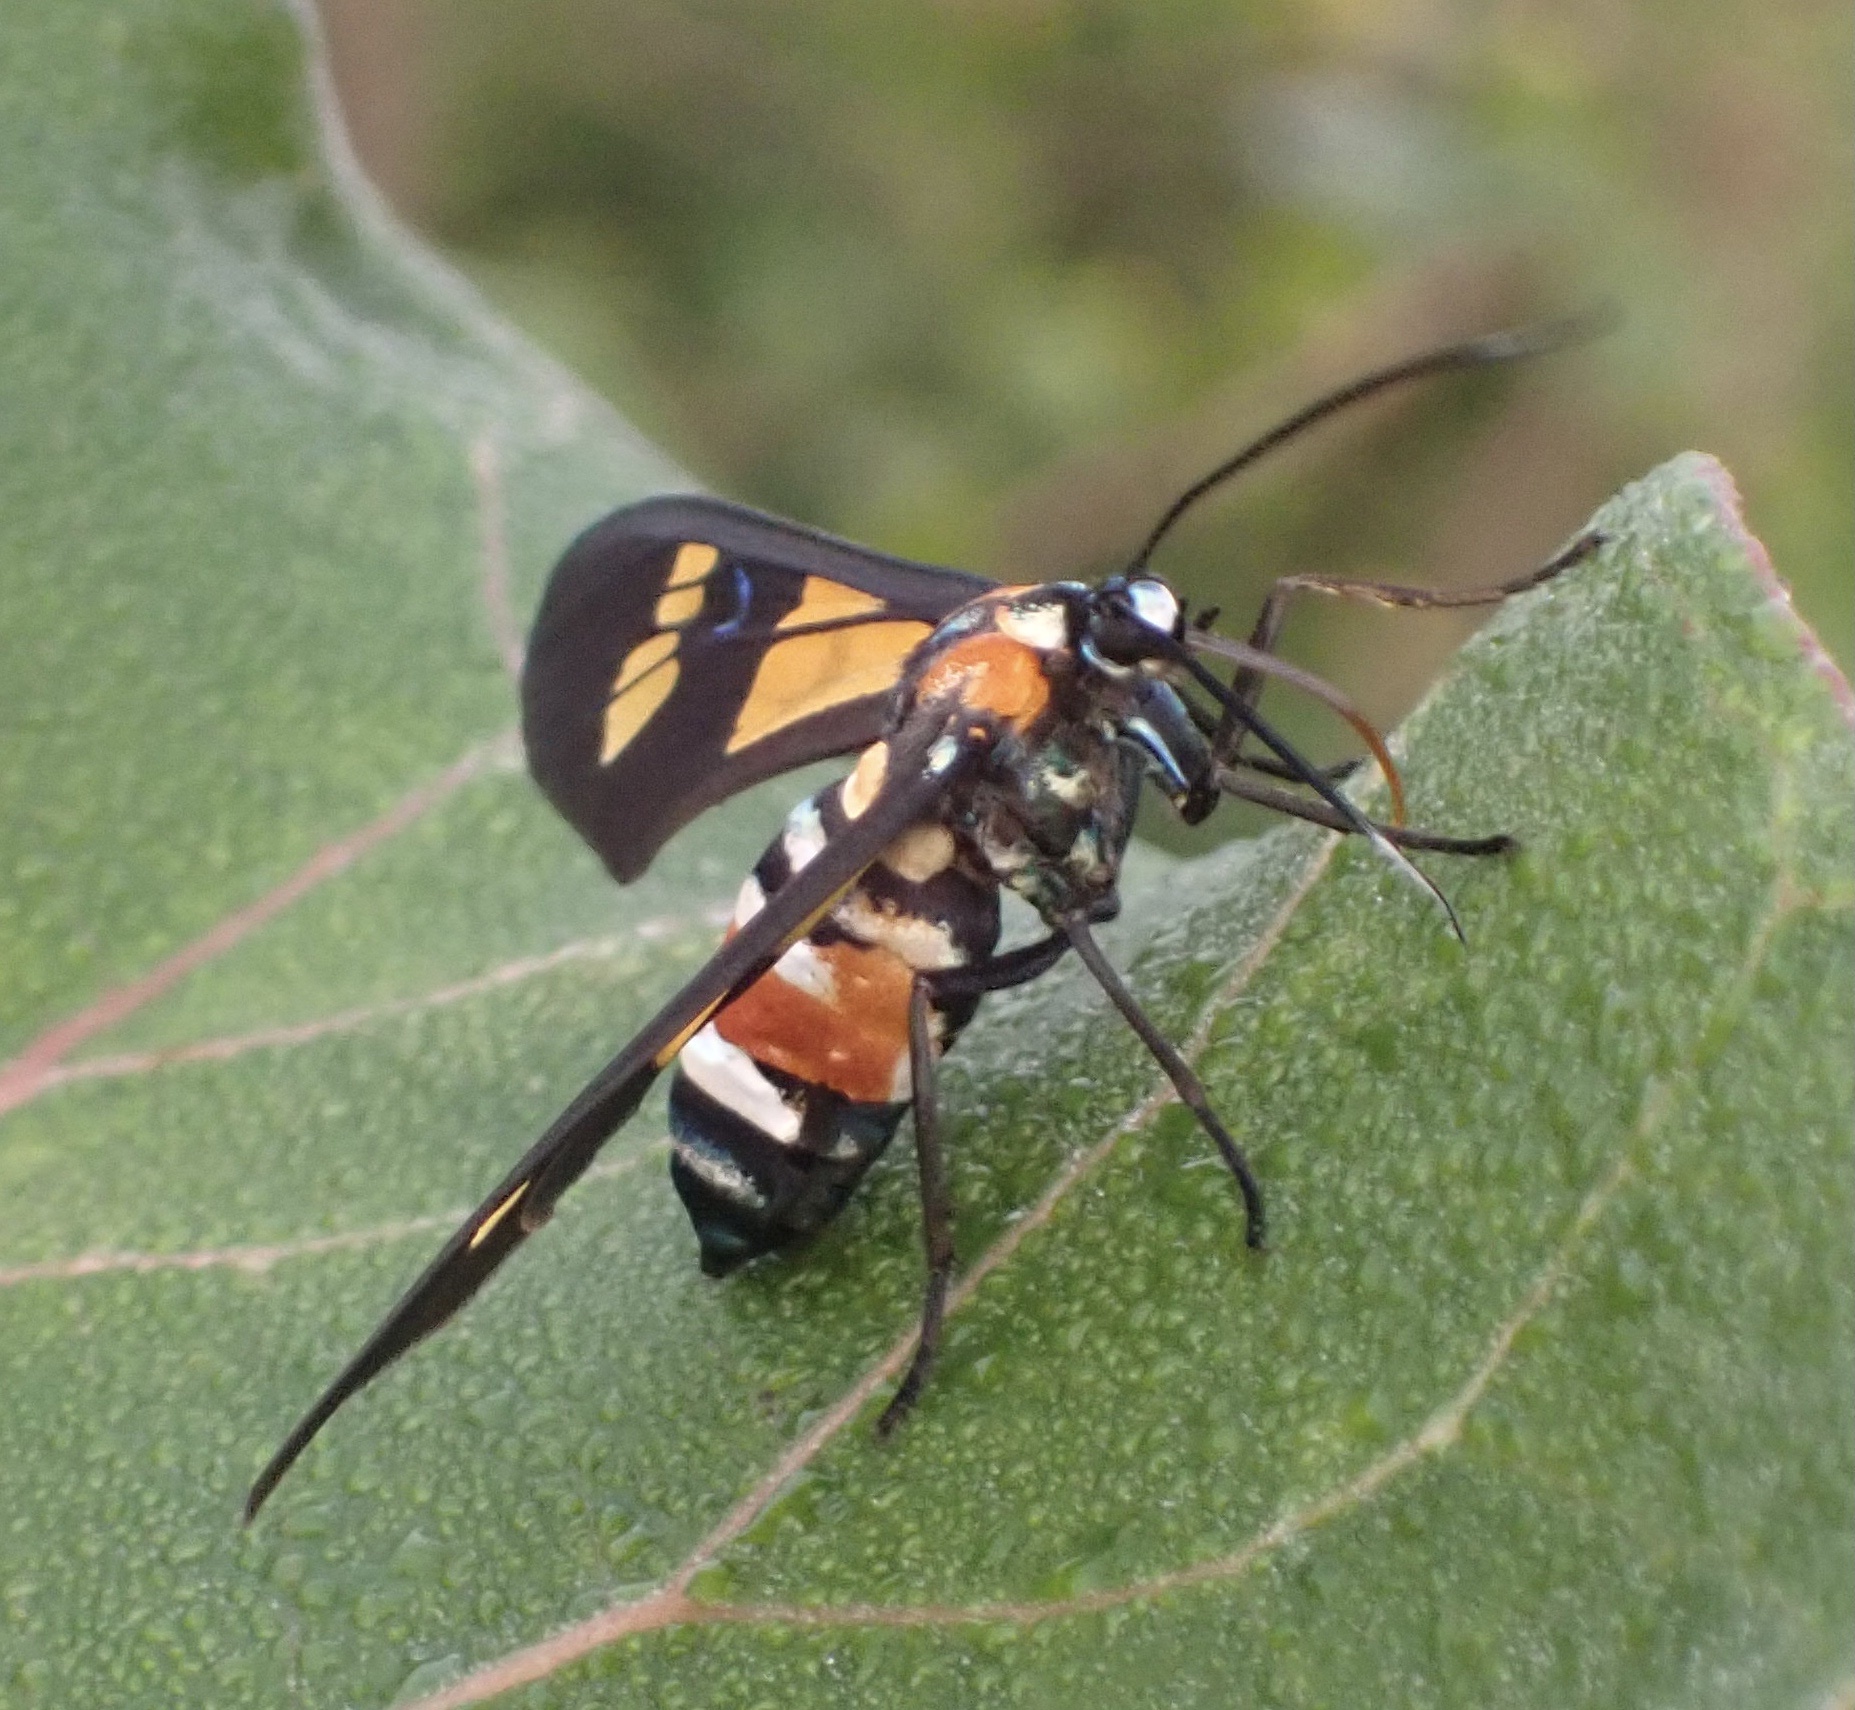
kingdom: Animalia
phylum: Arthropoda
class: Insecta
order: Lepidoptera
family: Erebidae
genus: Euchromia
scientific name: Euchromia lethe
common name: Basker
